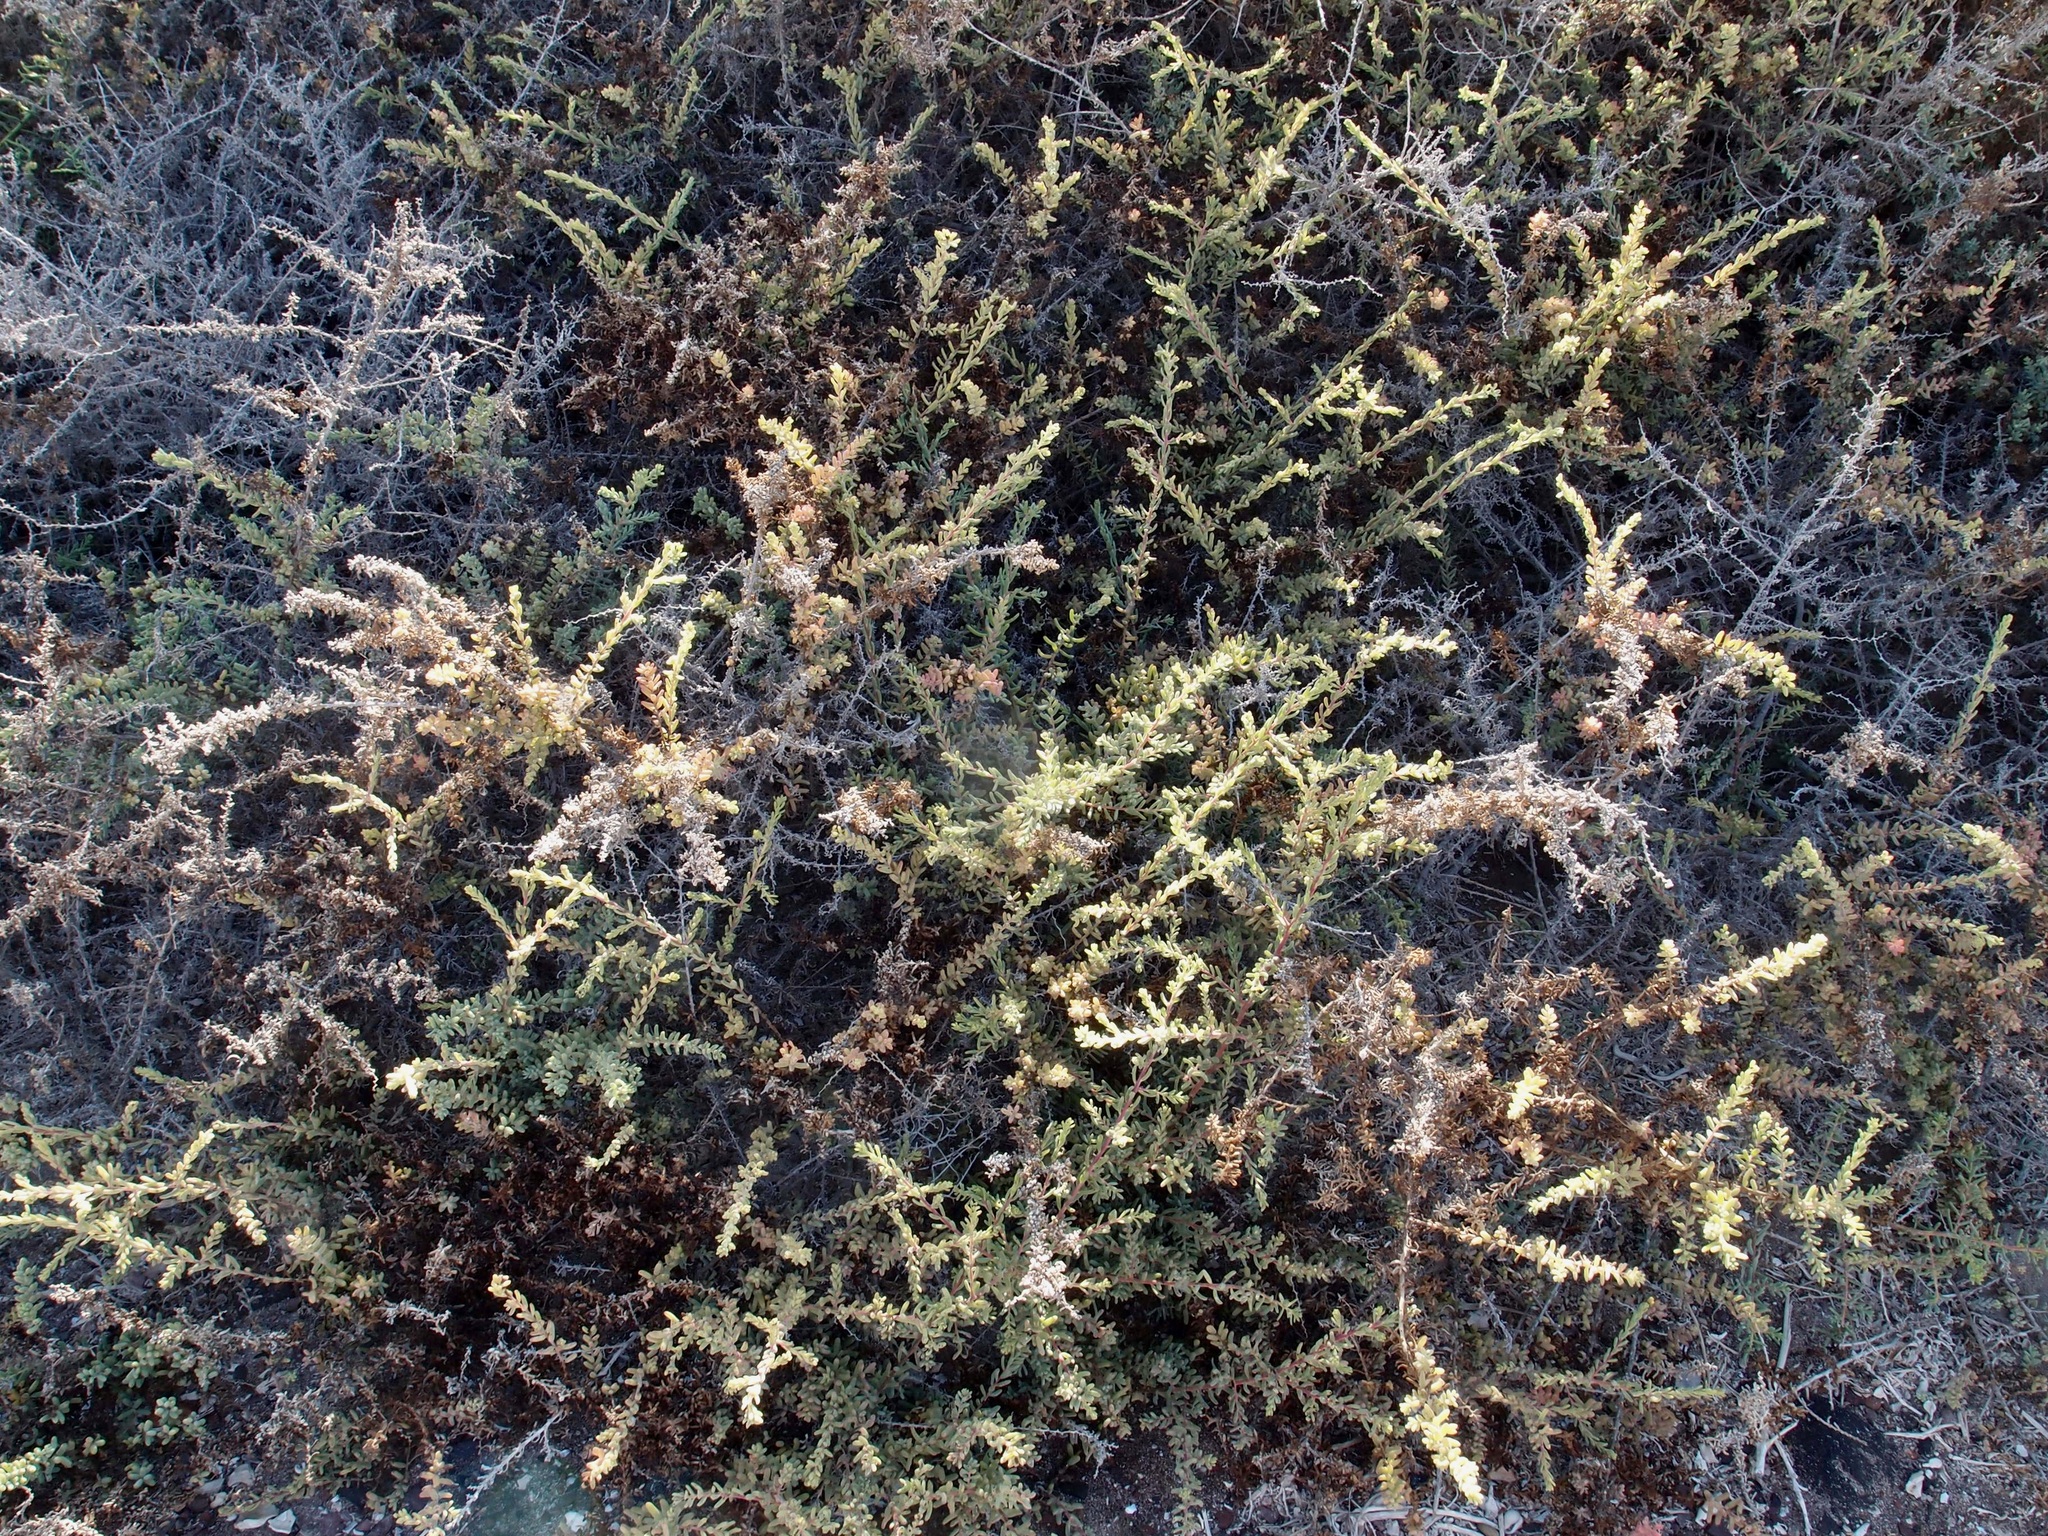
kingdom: Plantae
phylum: Tracheophyta
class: Magnoliopsida
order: Caryophyllales
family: Amaranthaceae
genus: Suaeda
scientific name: Suaeda nigra
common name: Bush seepweed
